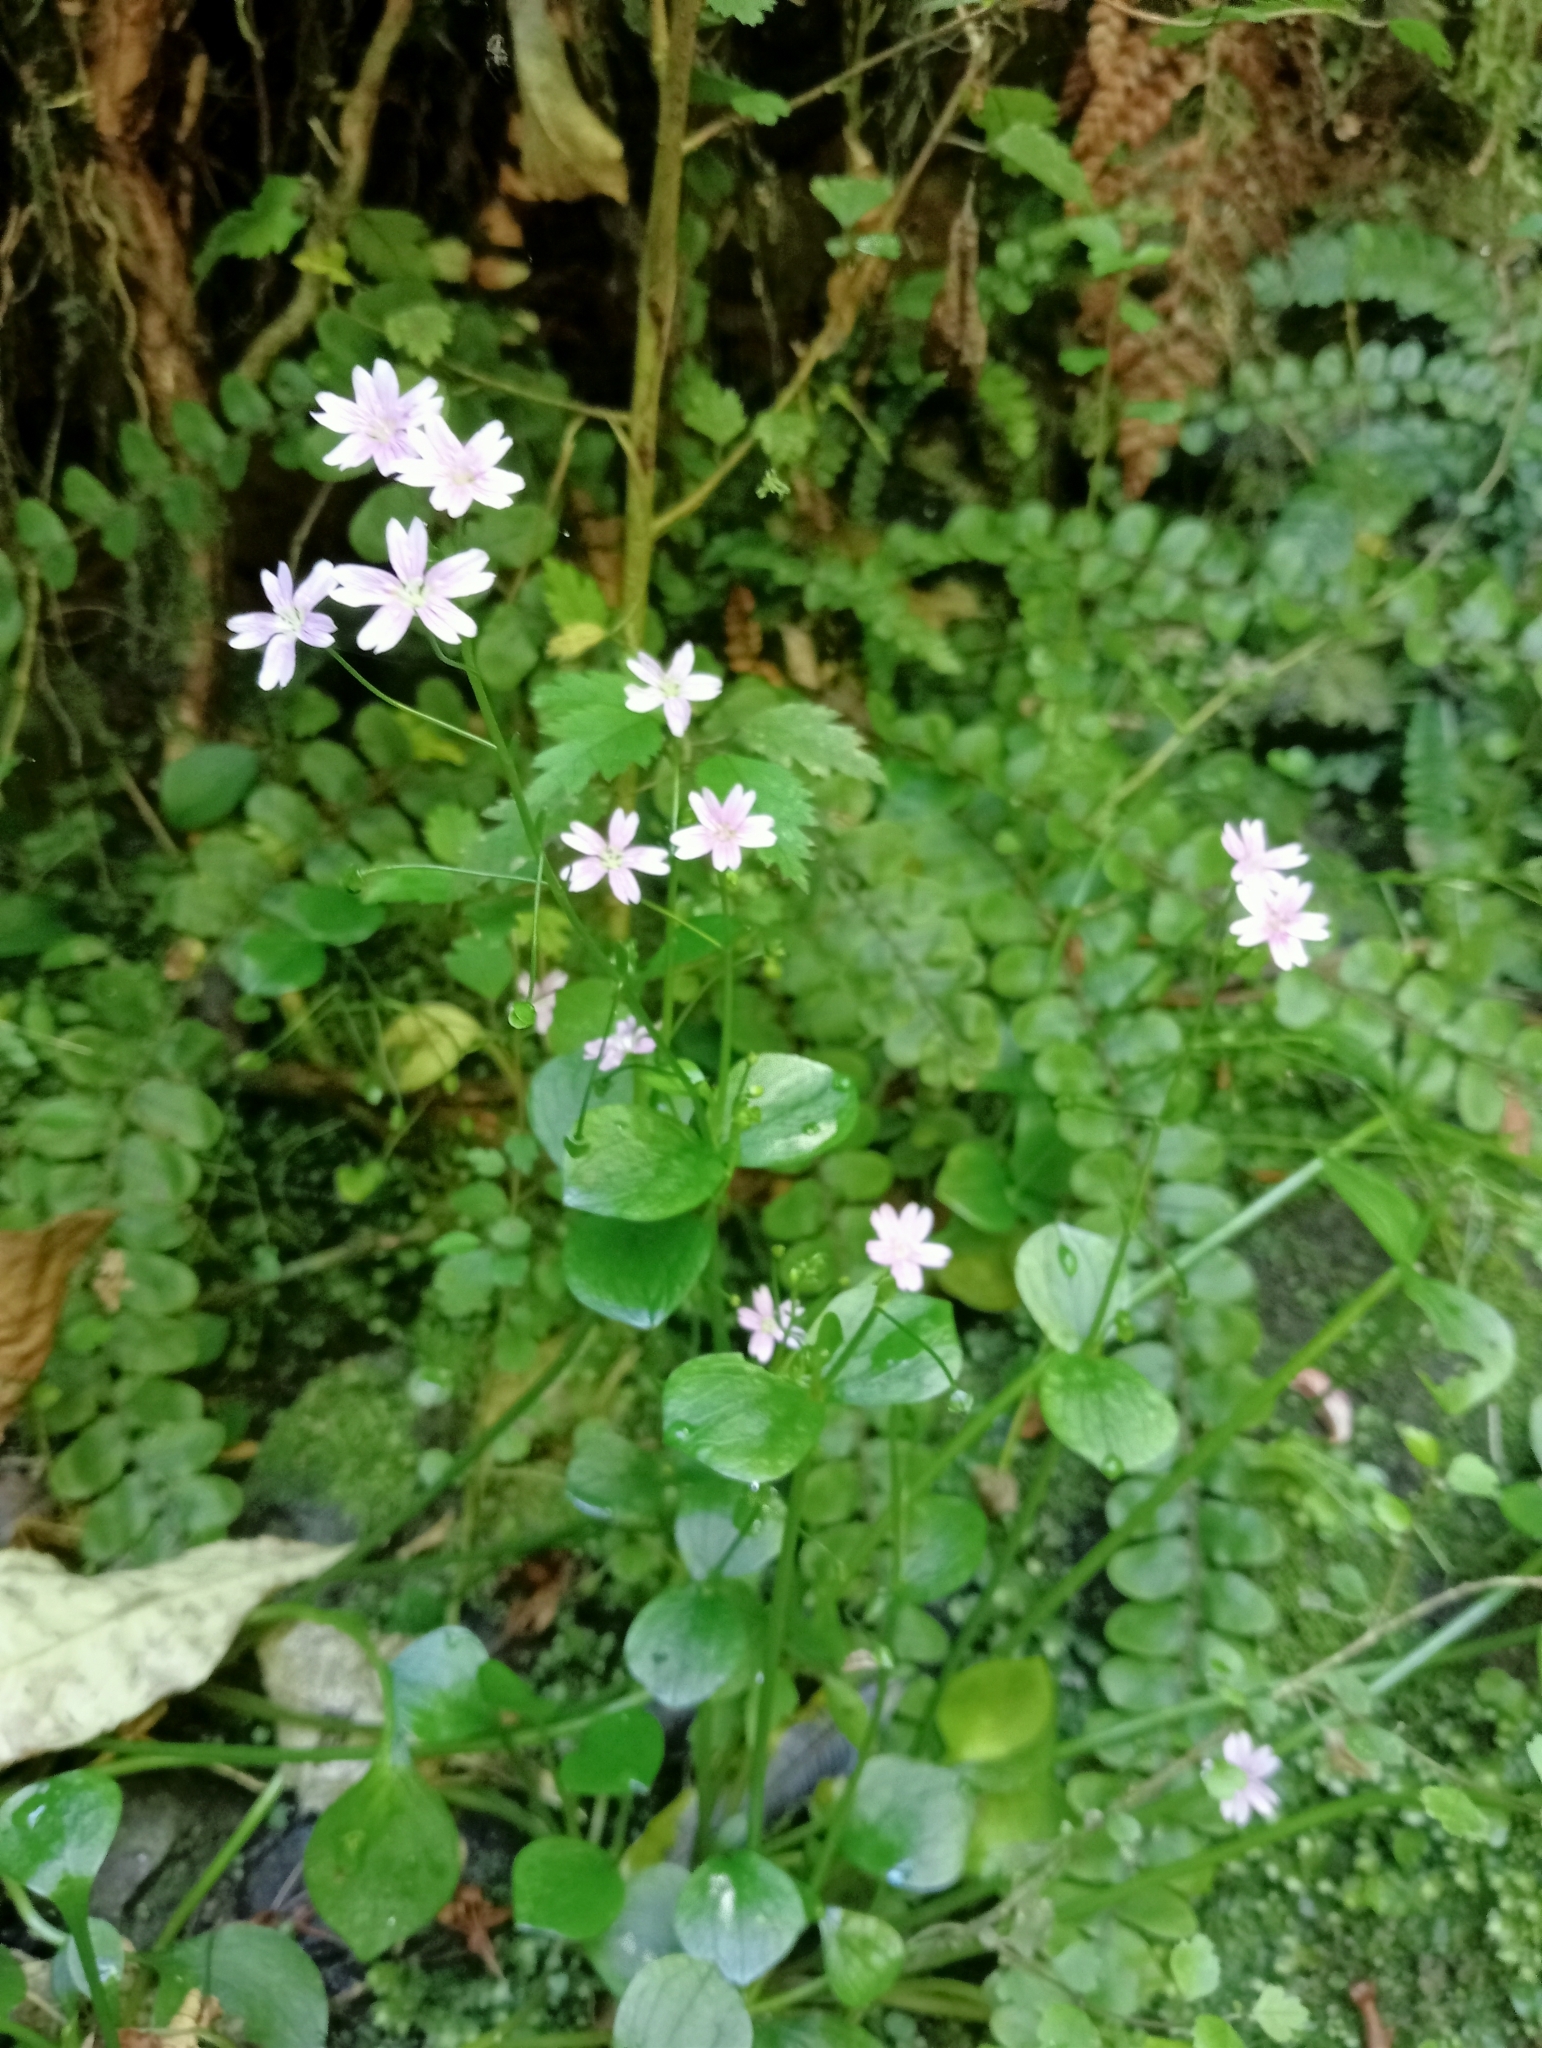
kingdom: Plantae
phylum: Tracheophyta
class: Magnoliopsida
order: Caryophyllales
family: Montiaceae
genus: Claytonia
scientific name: Claytonia sibirica
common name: Pink purslane
